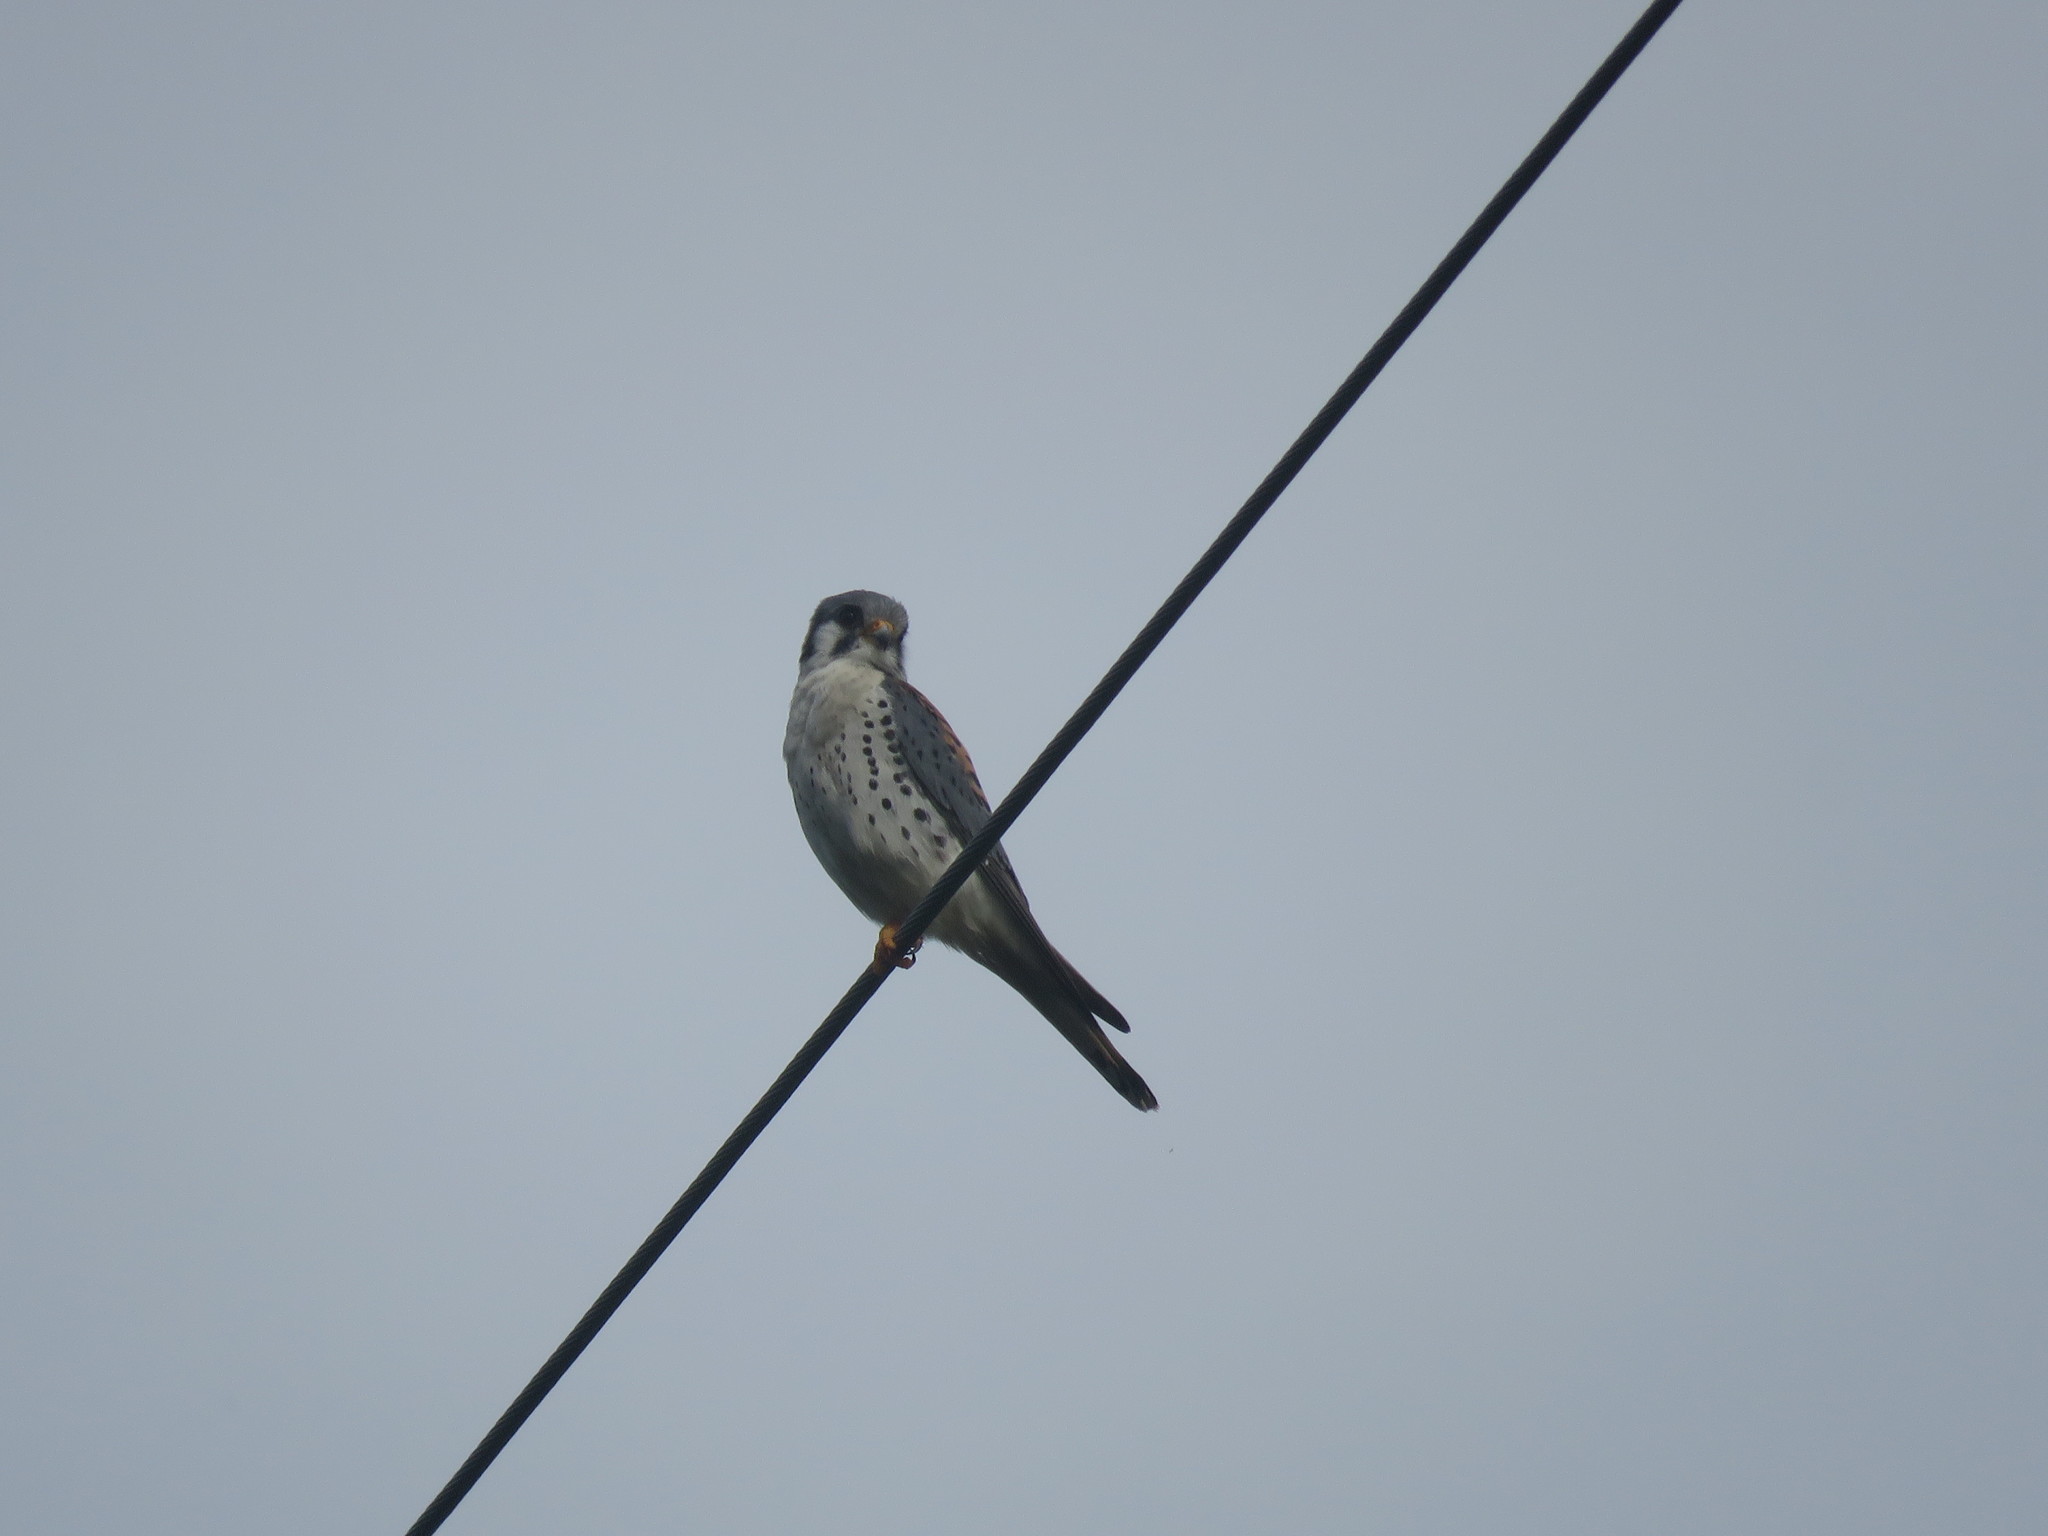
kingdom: Animalia
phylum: Chordata
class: Aves
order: Falconiformes
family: Falconidae
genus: Falco
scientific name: Falco sparverius
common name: American kestrel
